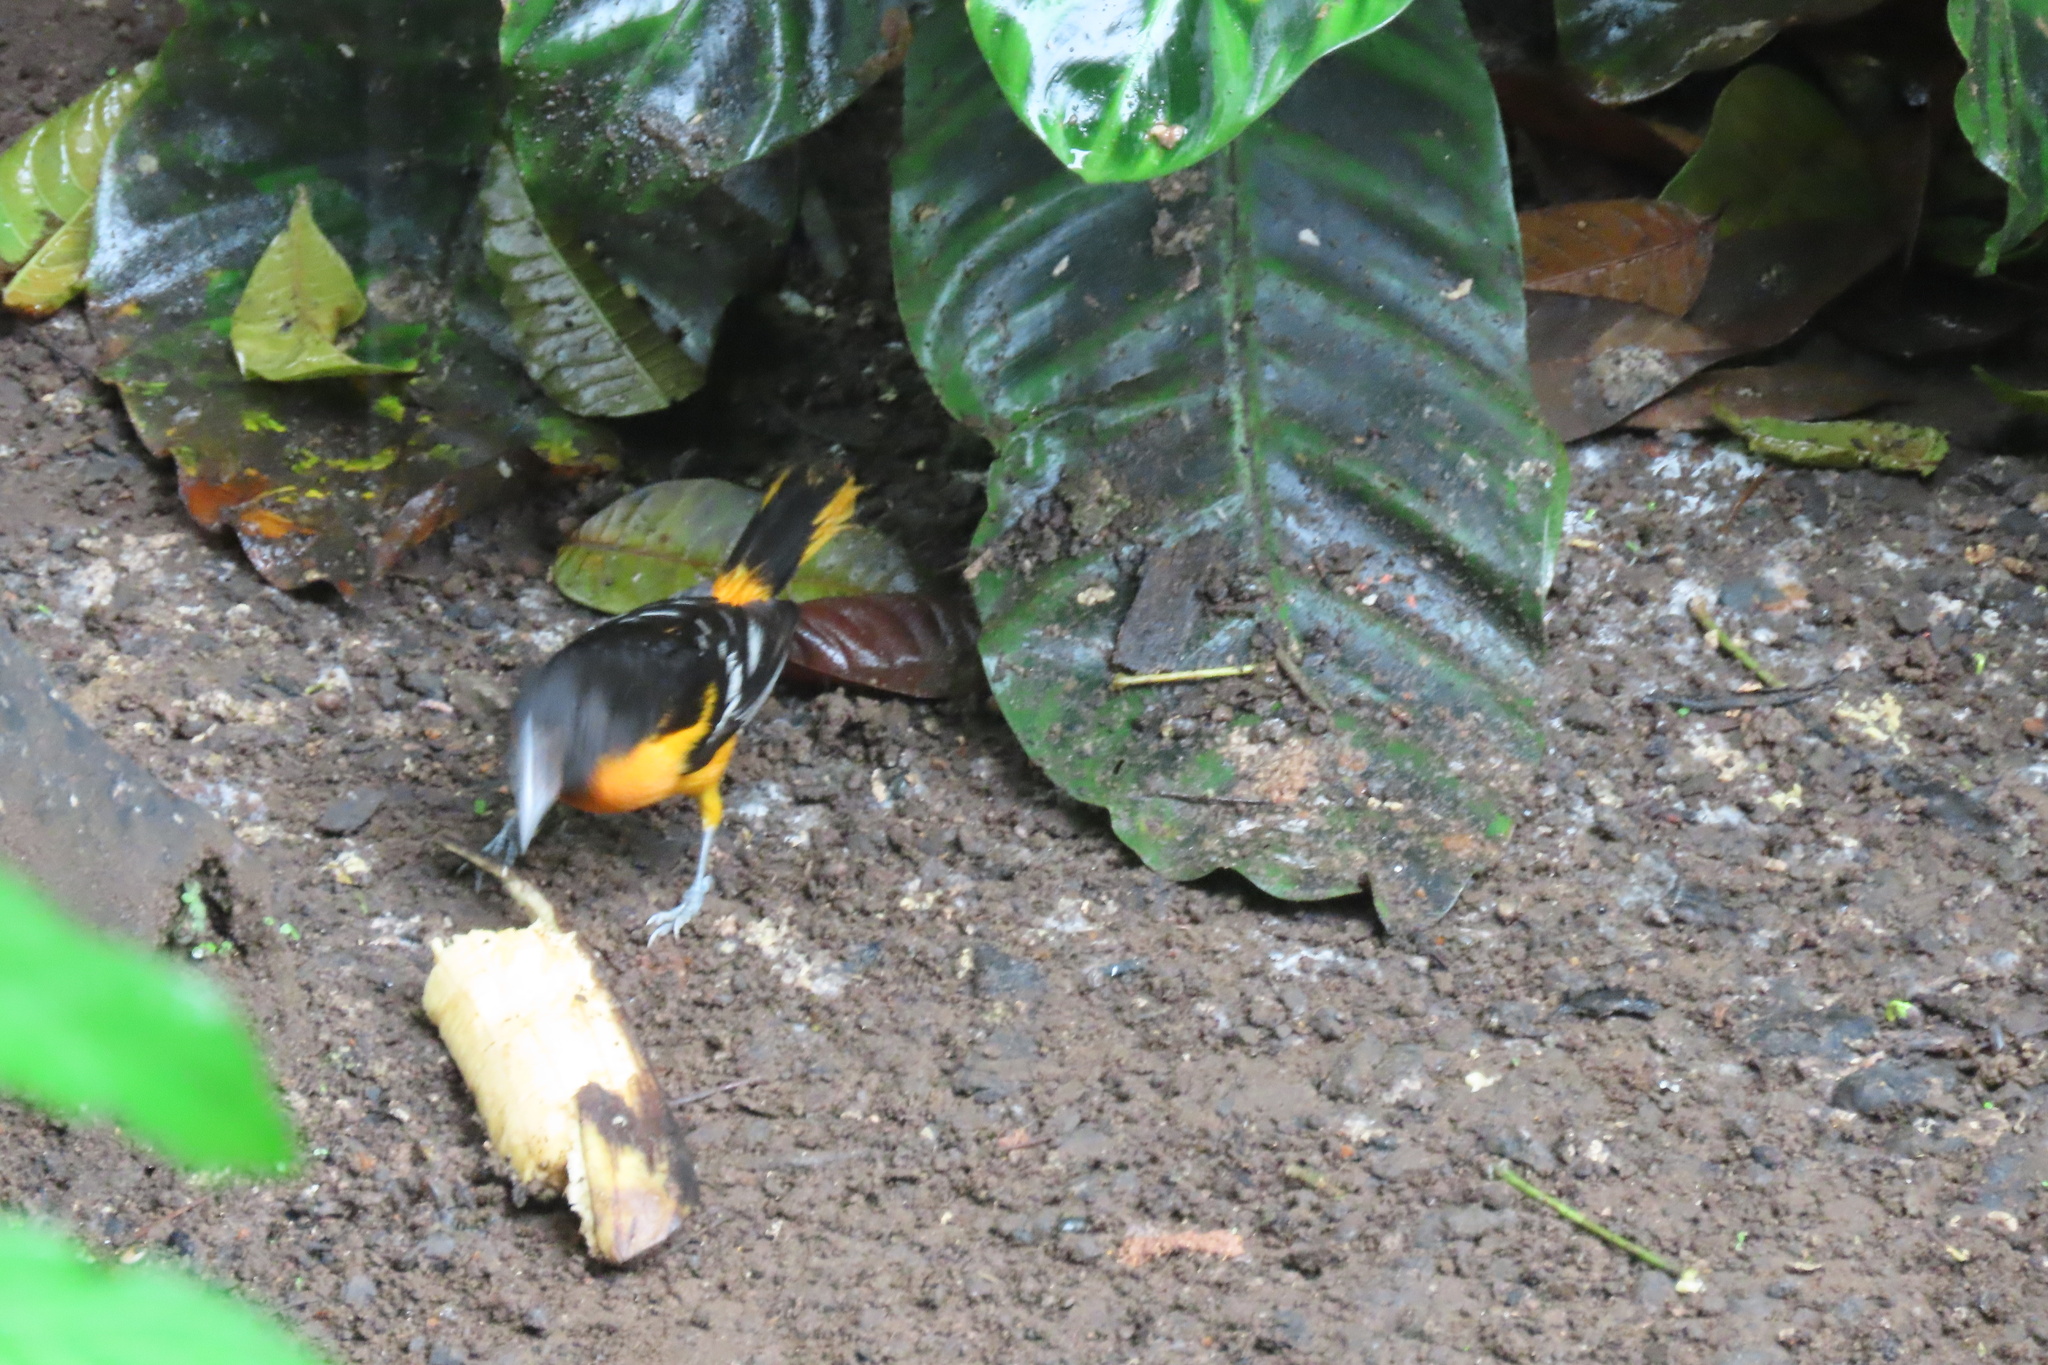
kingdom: Animalia
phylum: Chordata
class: Aves
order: Passeriformes
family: Icteridae
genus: Icterus
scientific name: Icterus galbula
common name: Baltimore oriole
